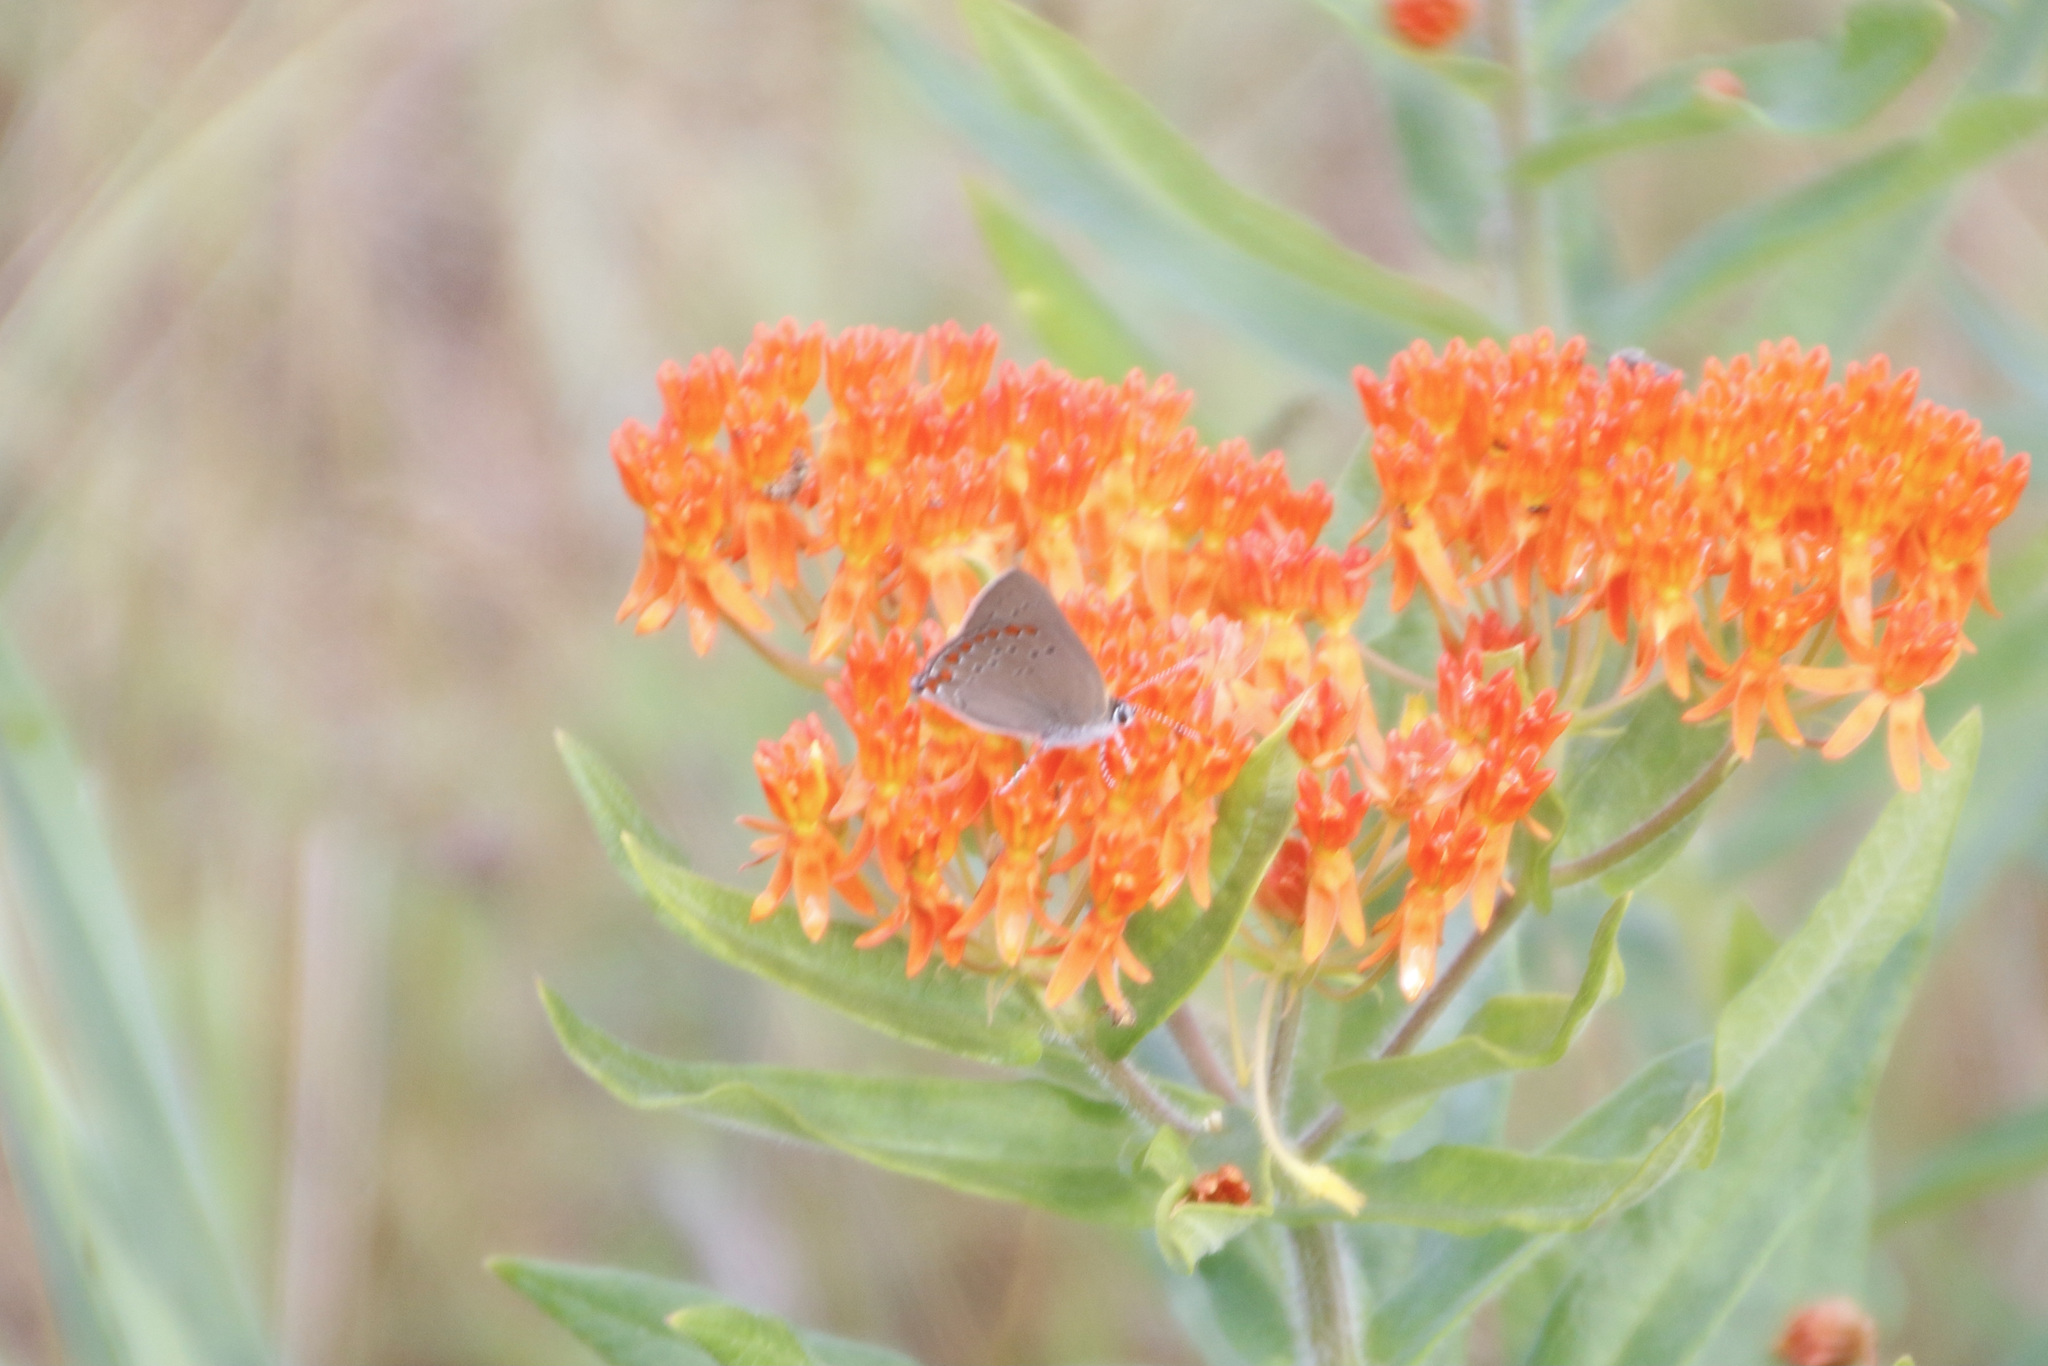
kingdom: Animalia
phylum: Arthropoda
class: Insecta
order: Lepidoptera
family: Lycaenidae
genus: Harkenclenus
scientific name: Harkenclenus titus
